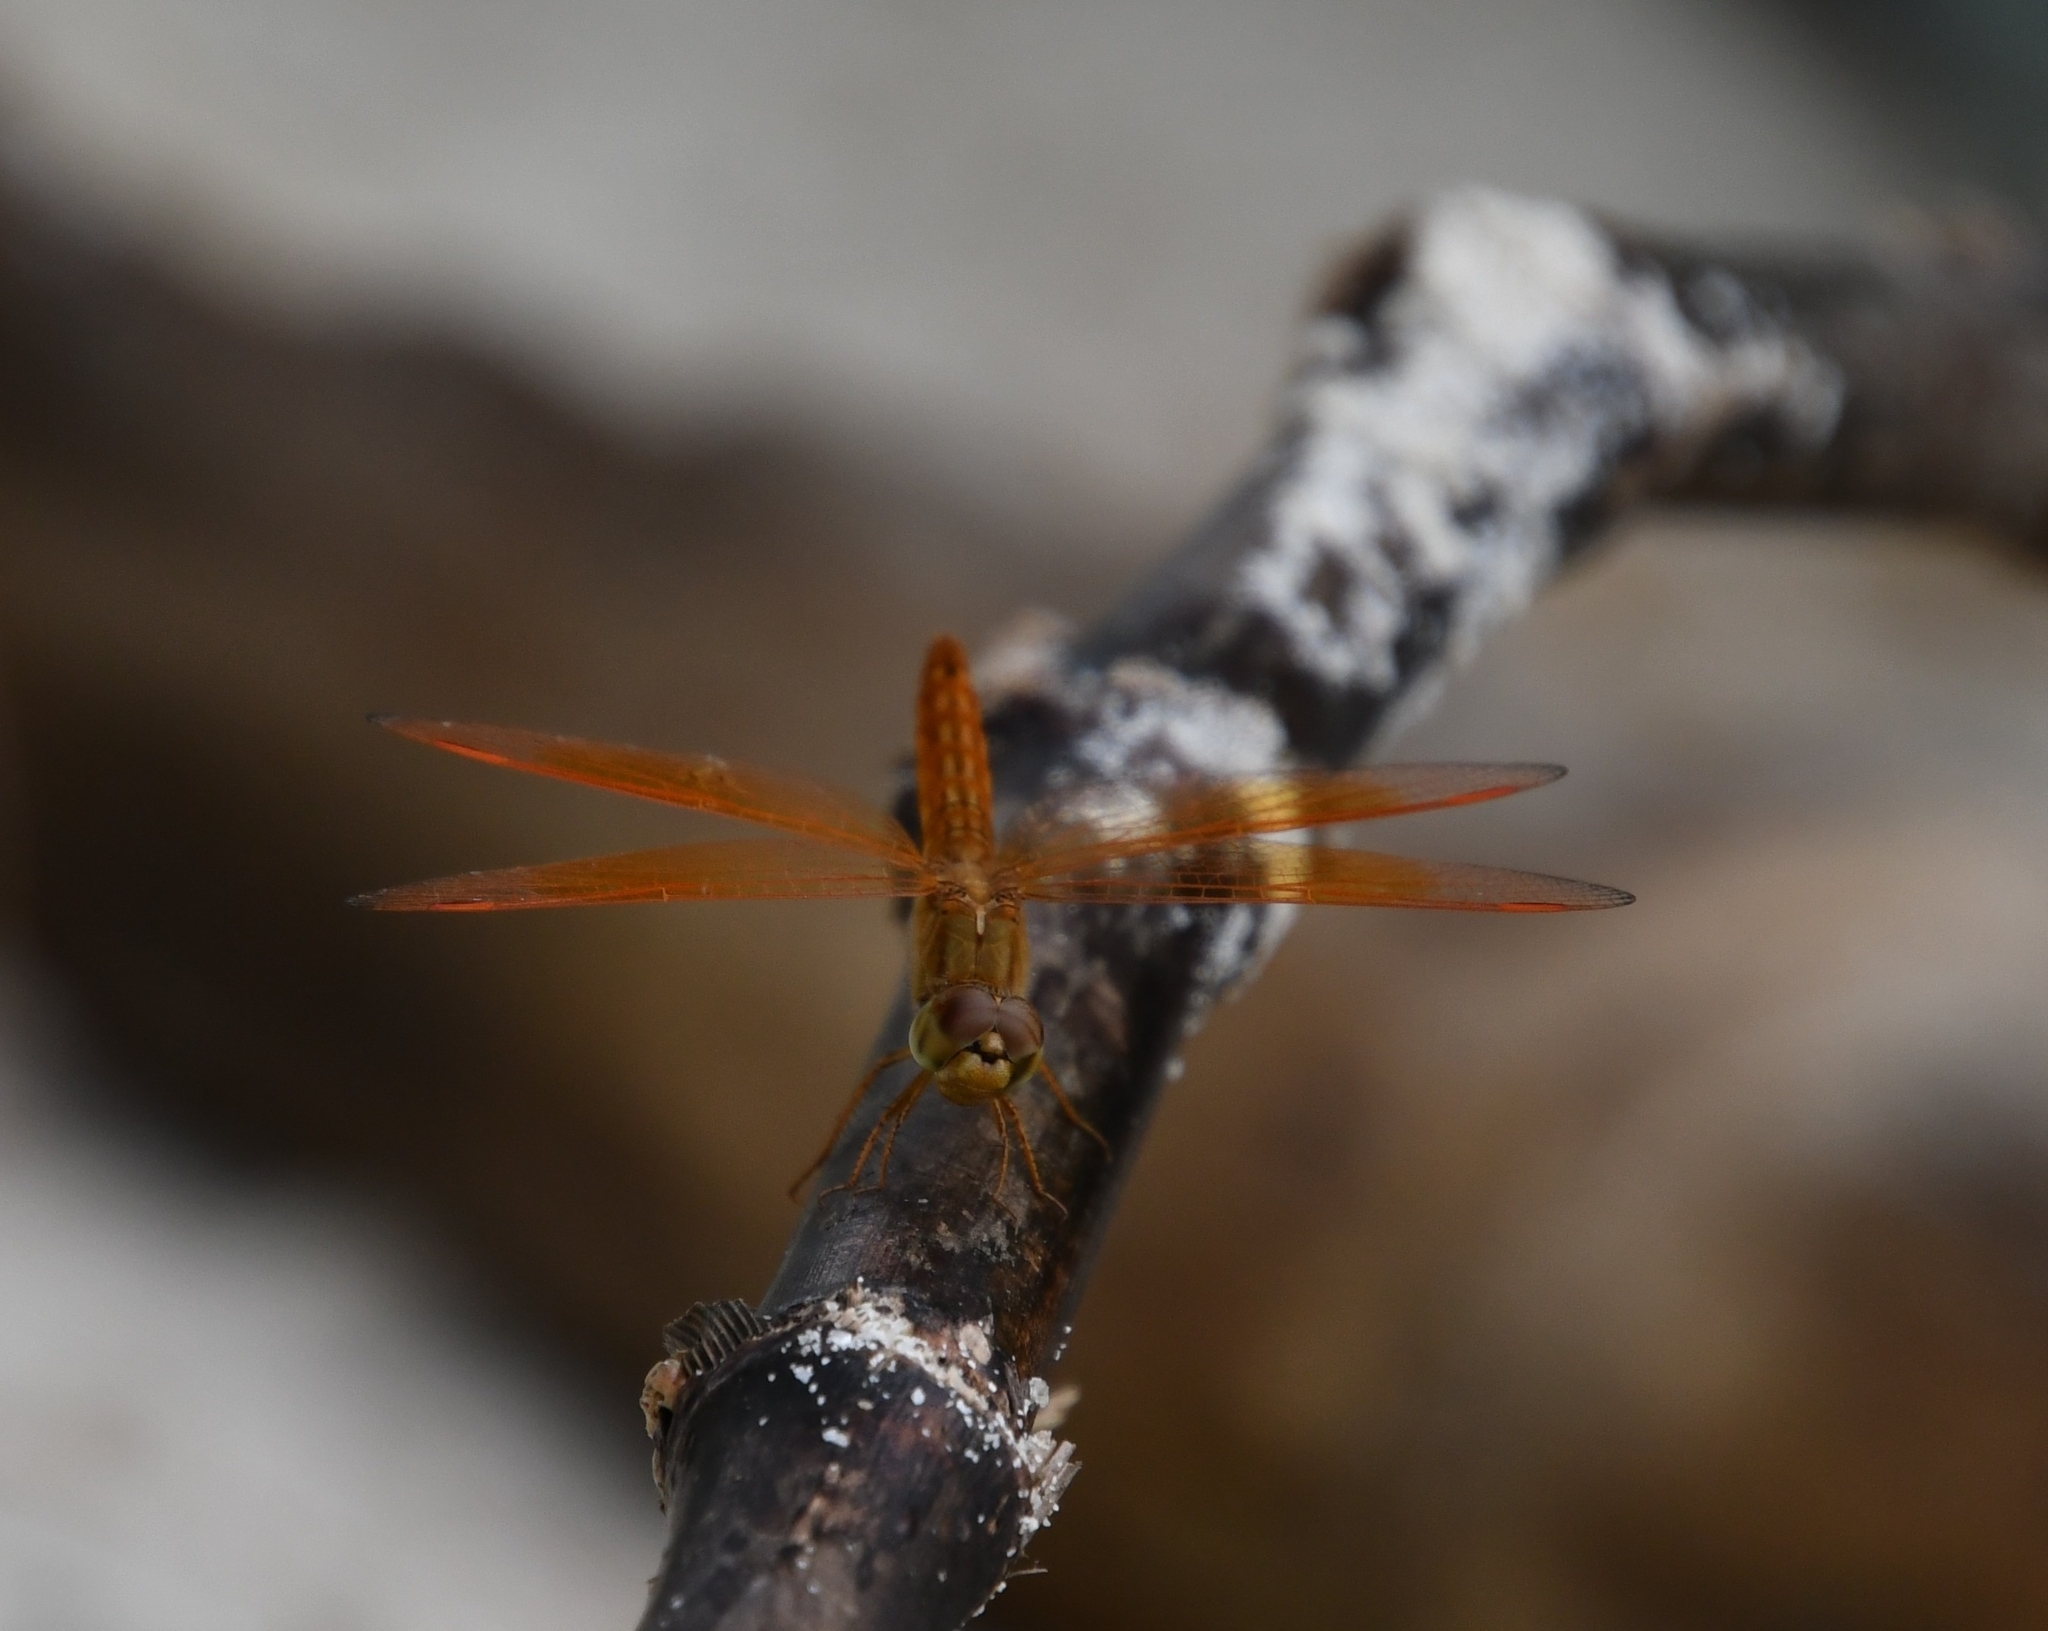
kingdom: Animalia
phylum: Arthropoda
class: Insecta
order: Odonata
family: Libellulidae
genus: Brachythemis
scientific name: Brachythemis contaminata
